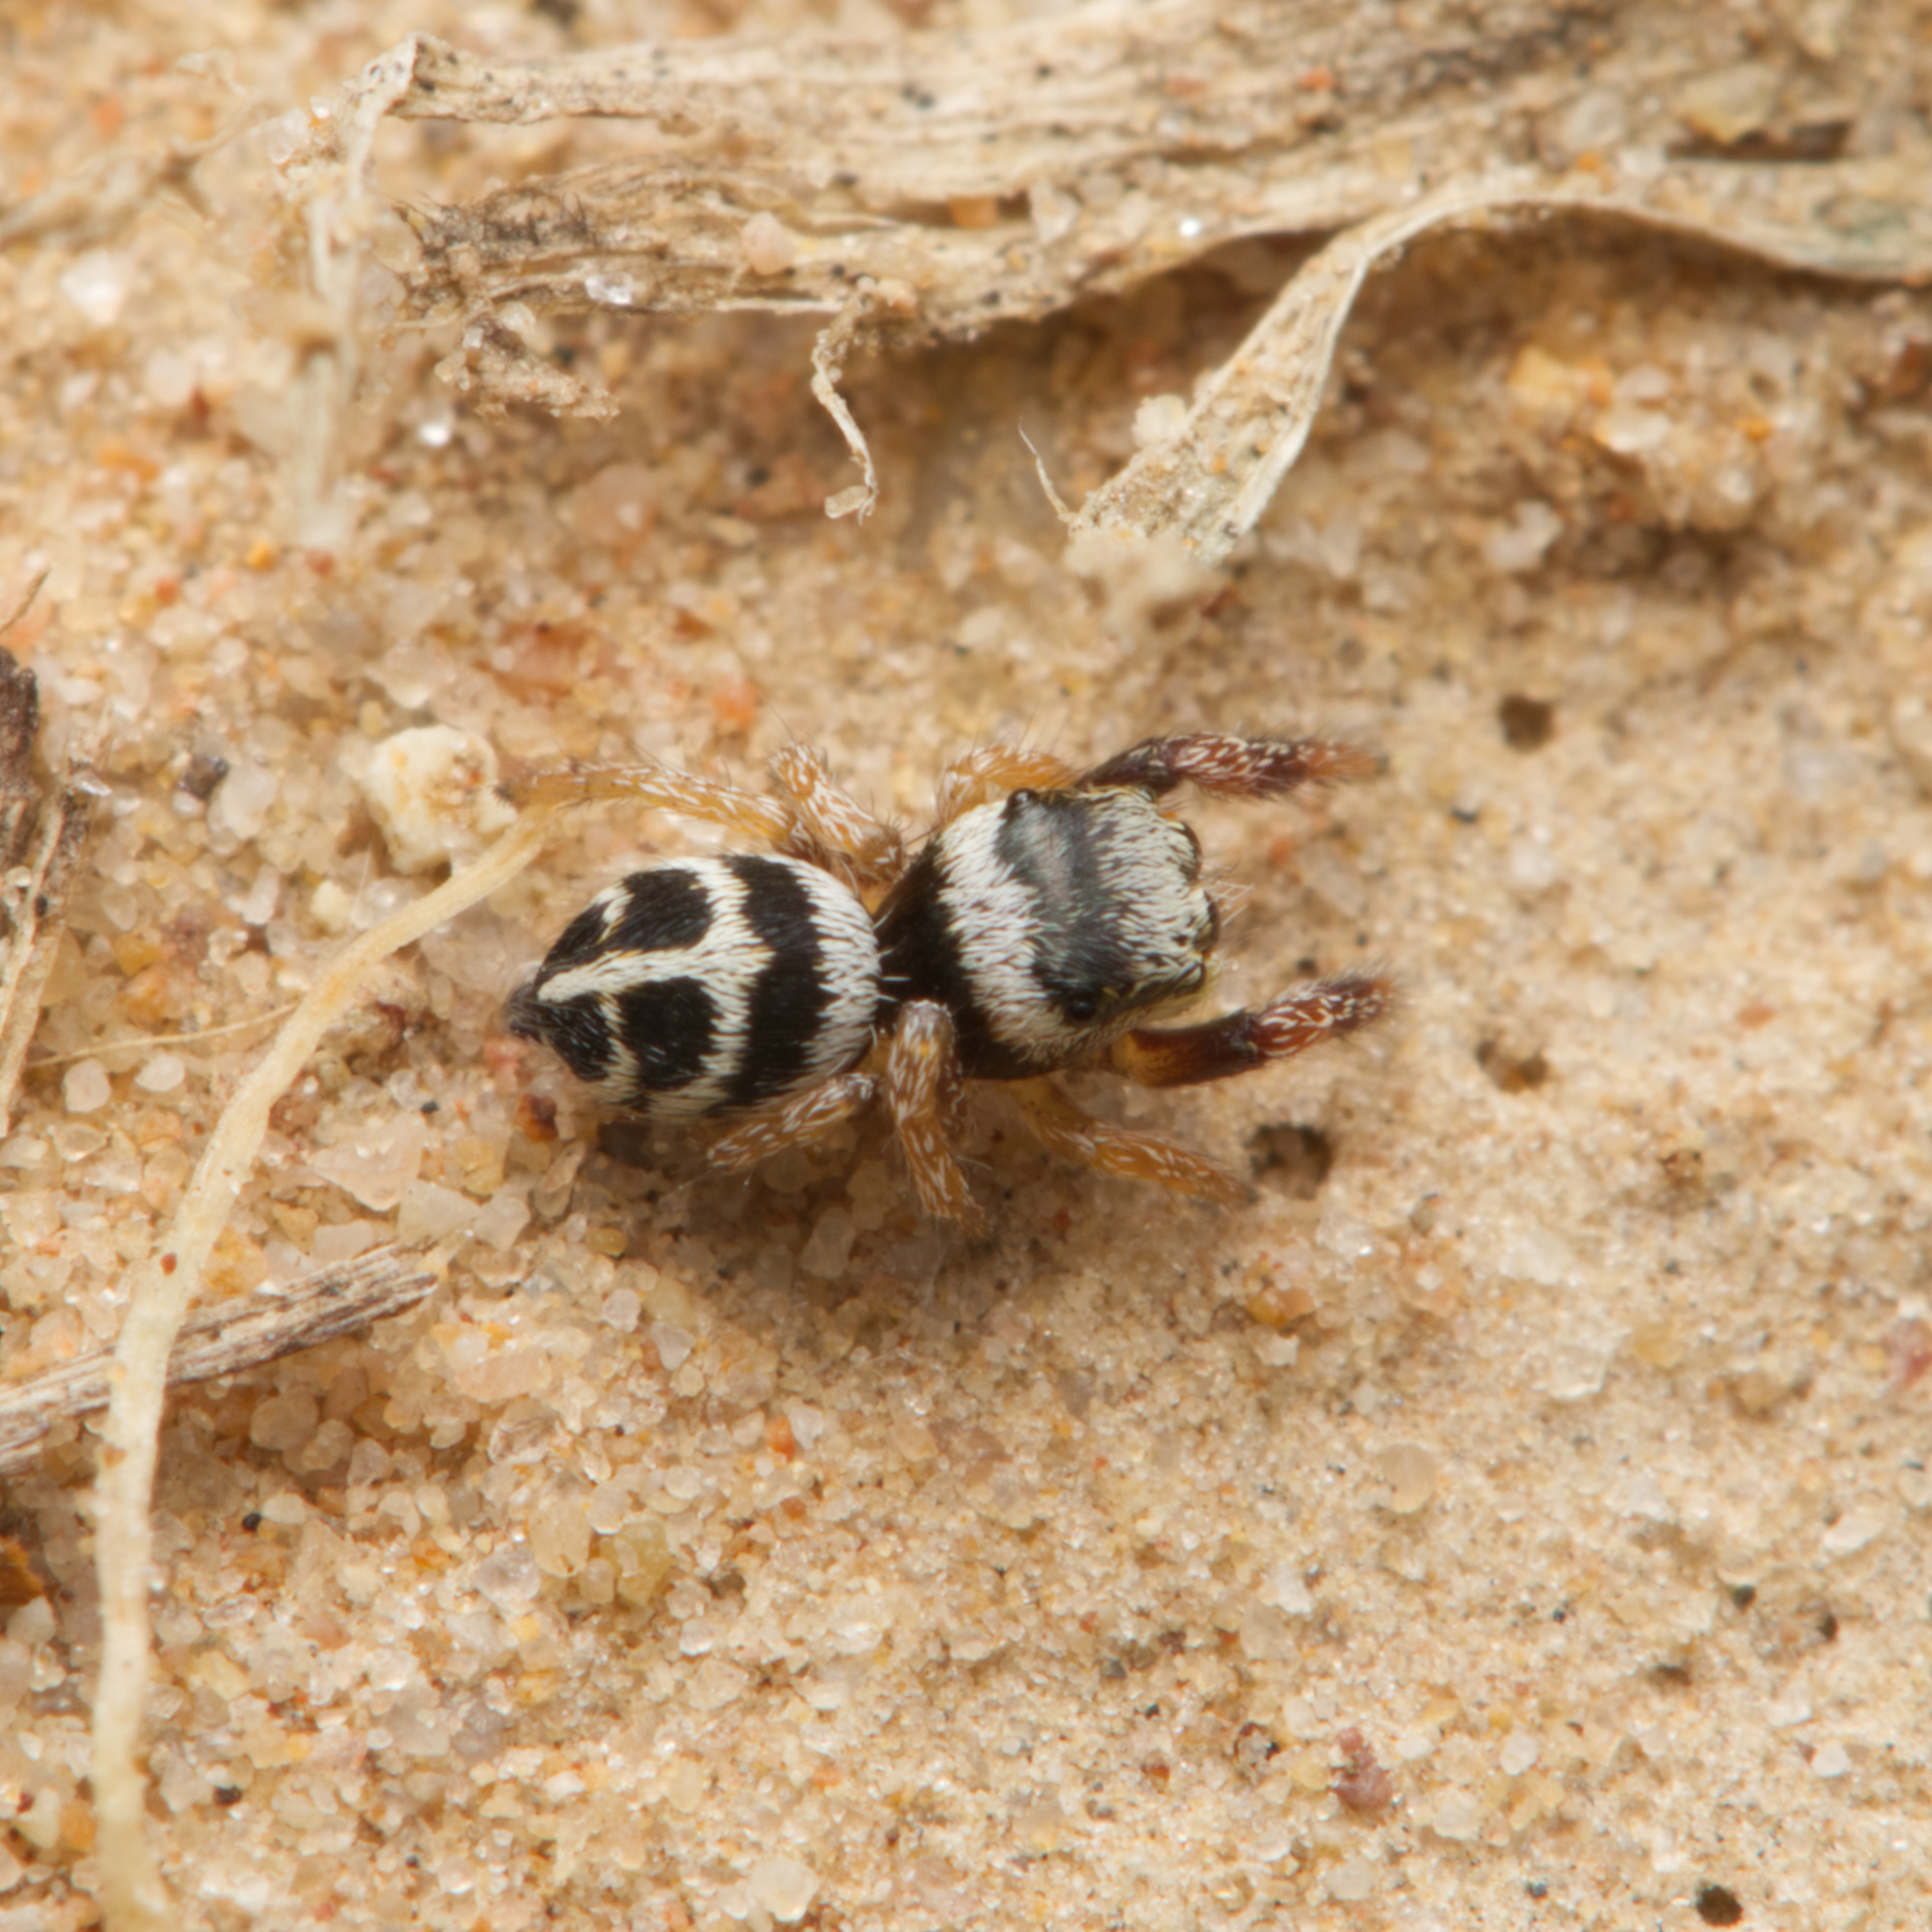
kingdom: Animalia
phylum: Arthropoda
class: Arachnida
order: Araneae
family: Salticidae
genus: Pellenes
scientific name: Pellenes bitaeniata
